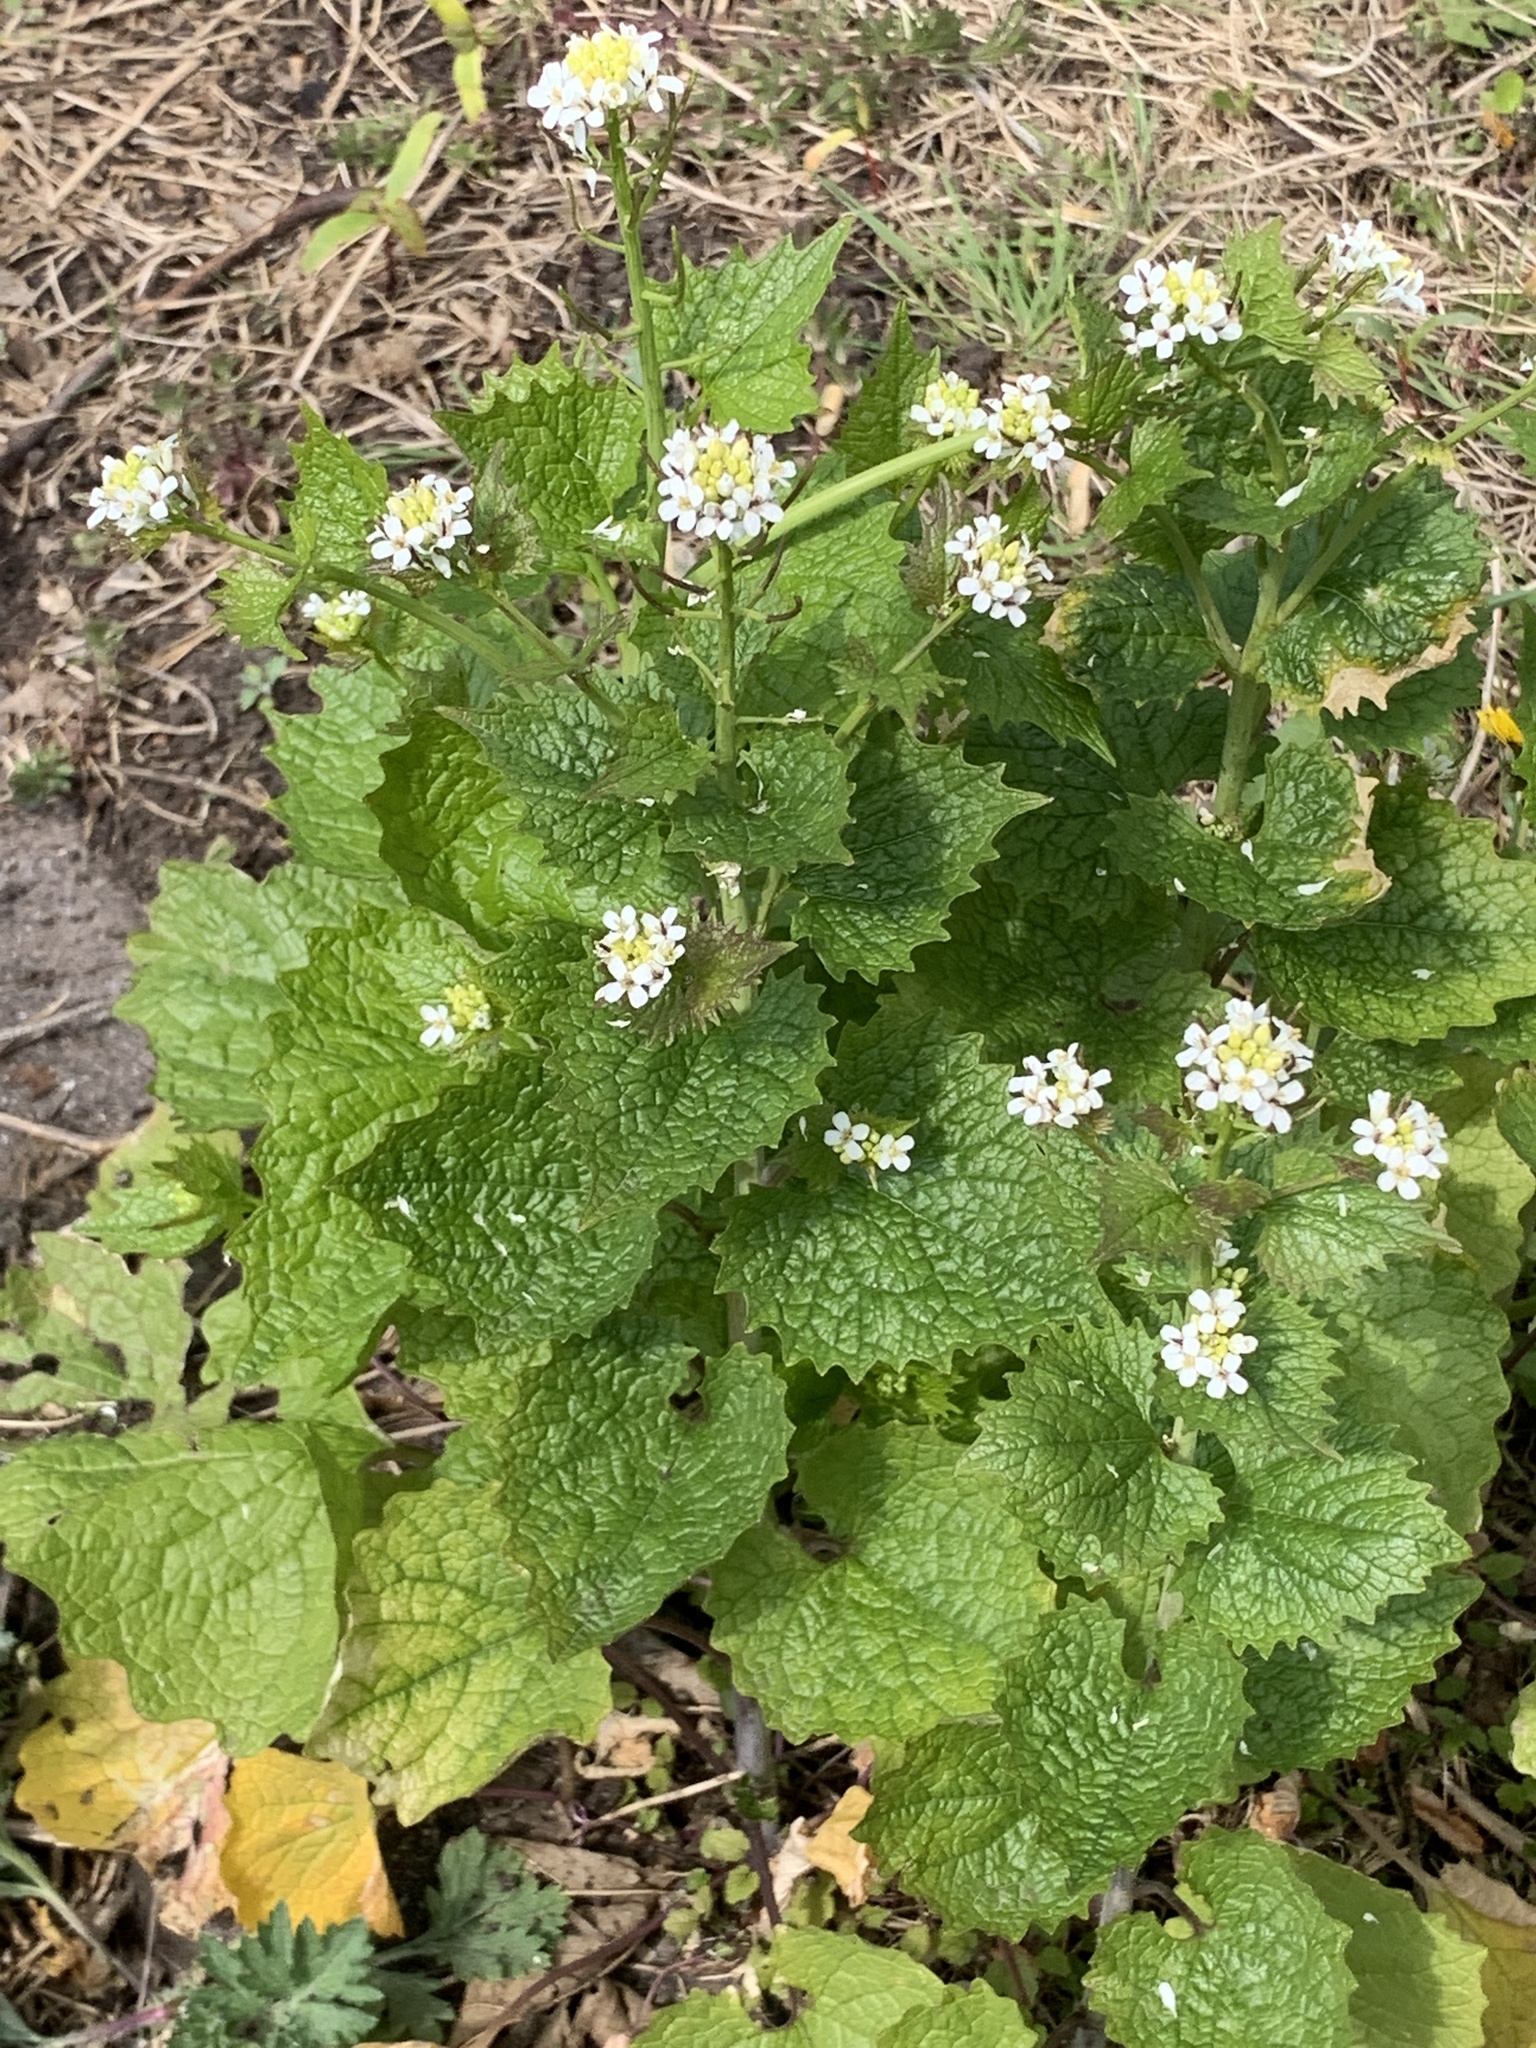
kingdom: Plantae
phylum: Tracheophyta
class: Magnoliopsida
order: Brassicales
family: Brassicaceae
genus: Alliaria
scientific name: Alliaria petiolata
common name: Garlic mustard
